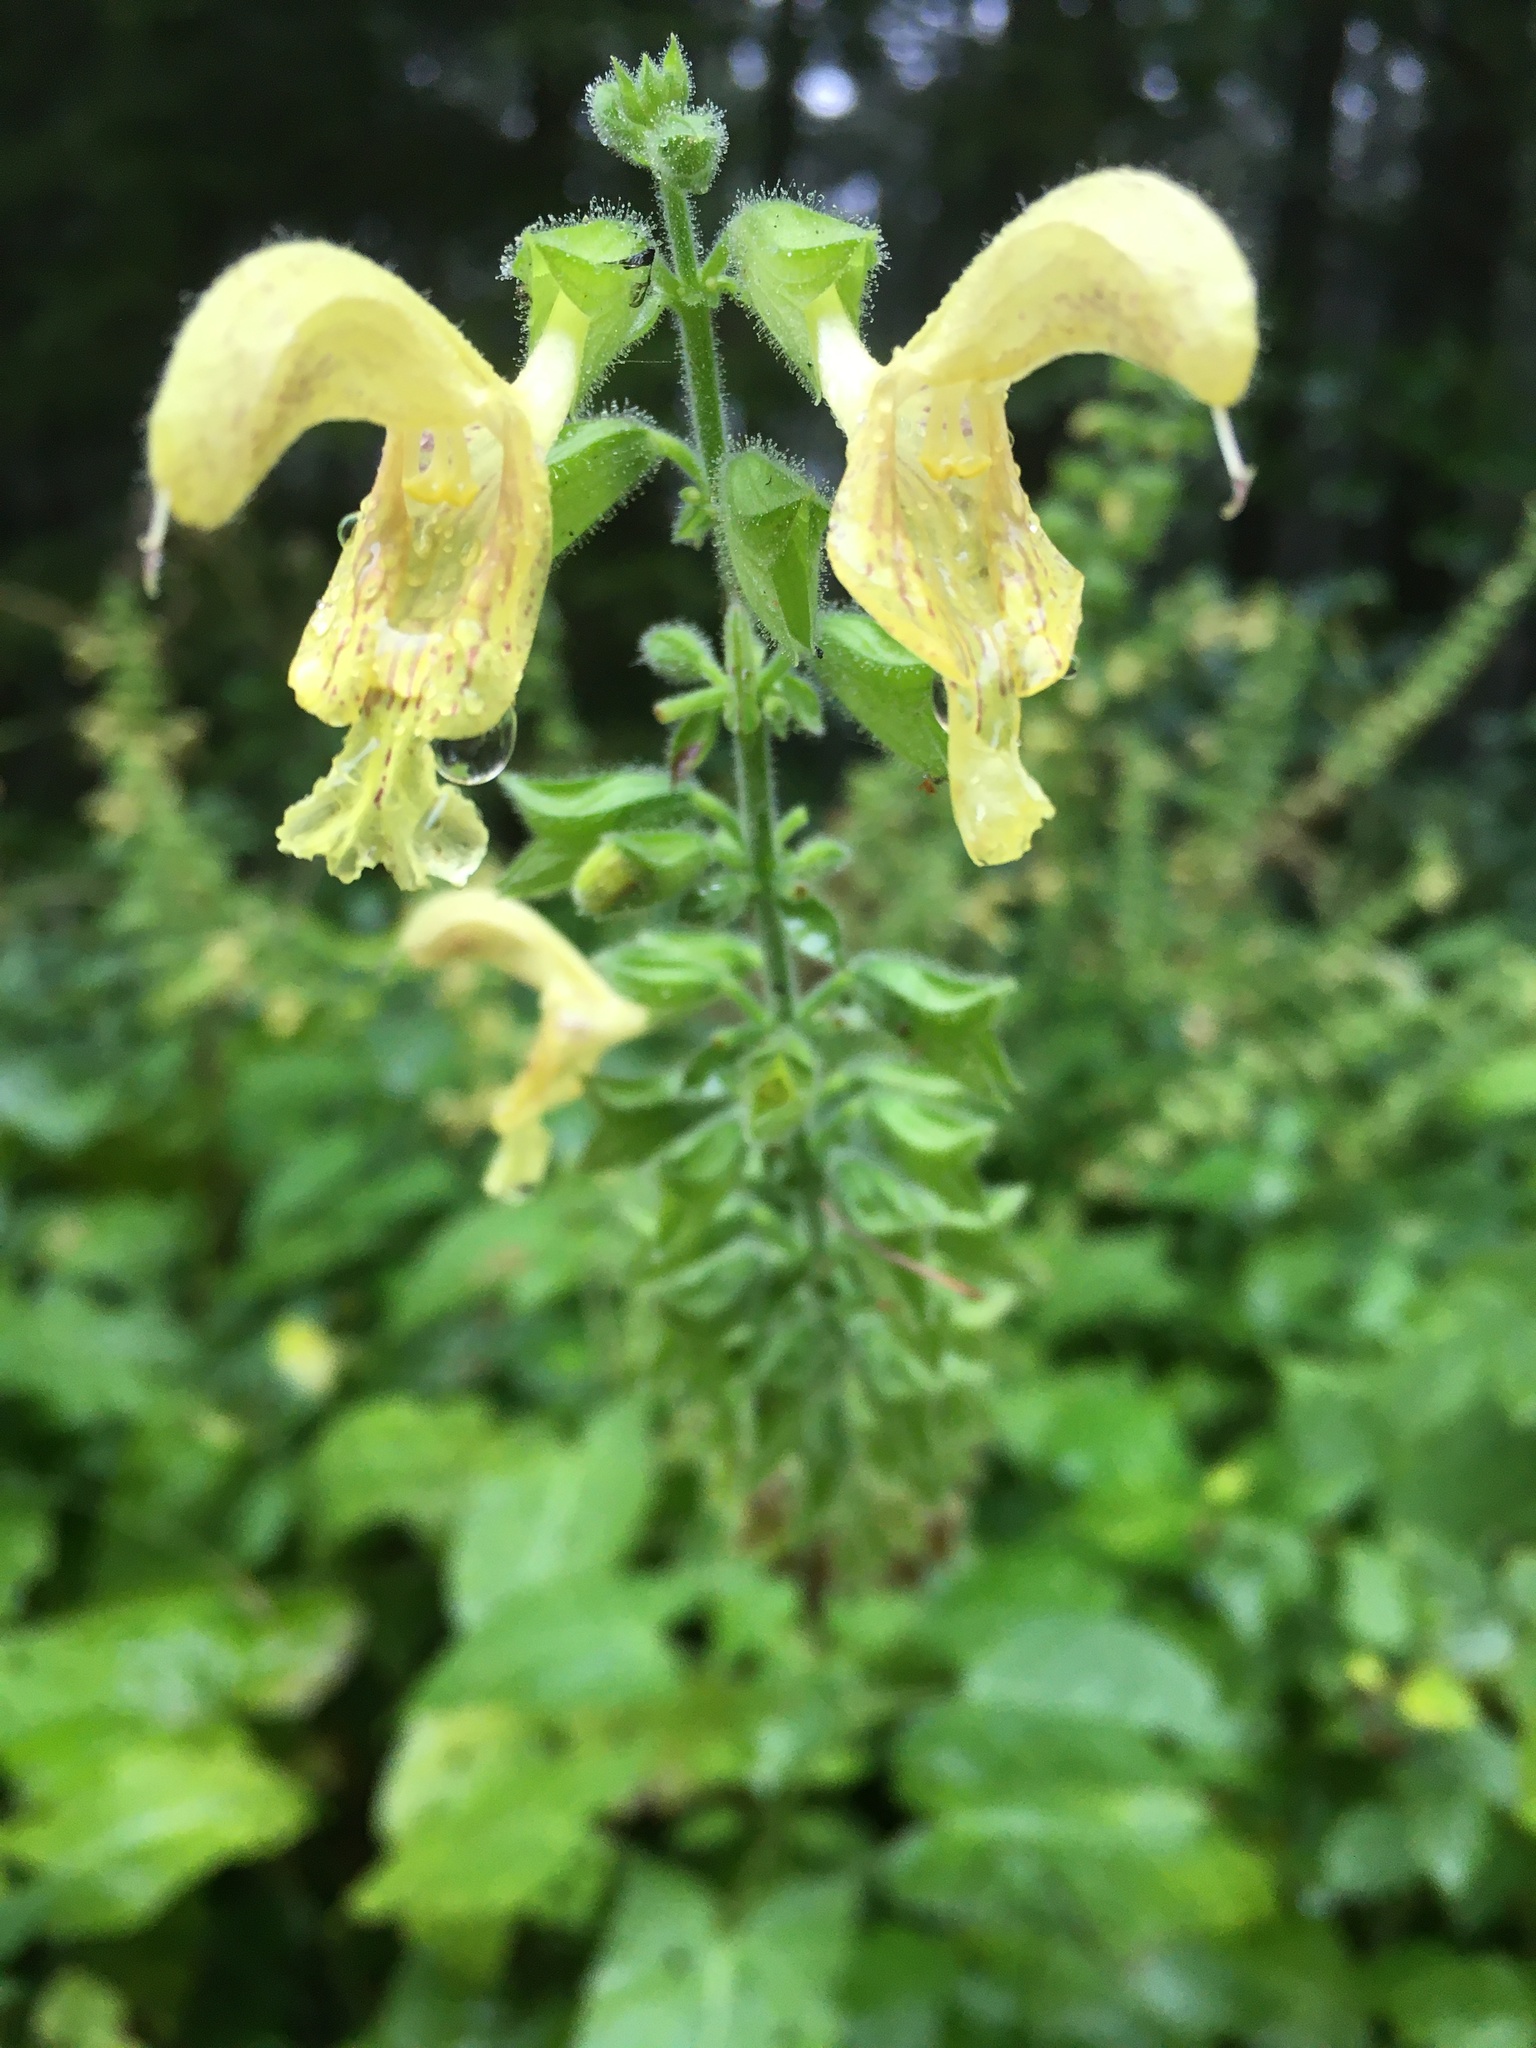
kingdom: Plantae
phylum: Tracheophyta
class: Magnoliopsida
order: Lamiales
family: Lamiaceae
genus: Salvia
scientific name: Salvia glutinosa
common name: Sticky clary
